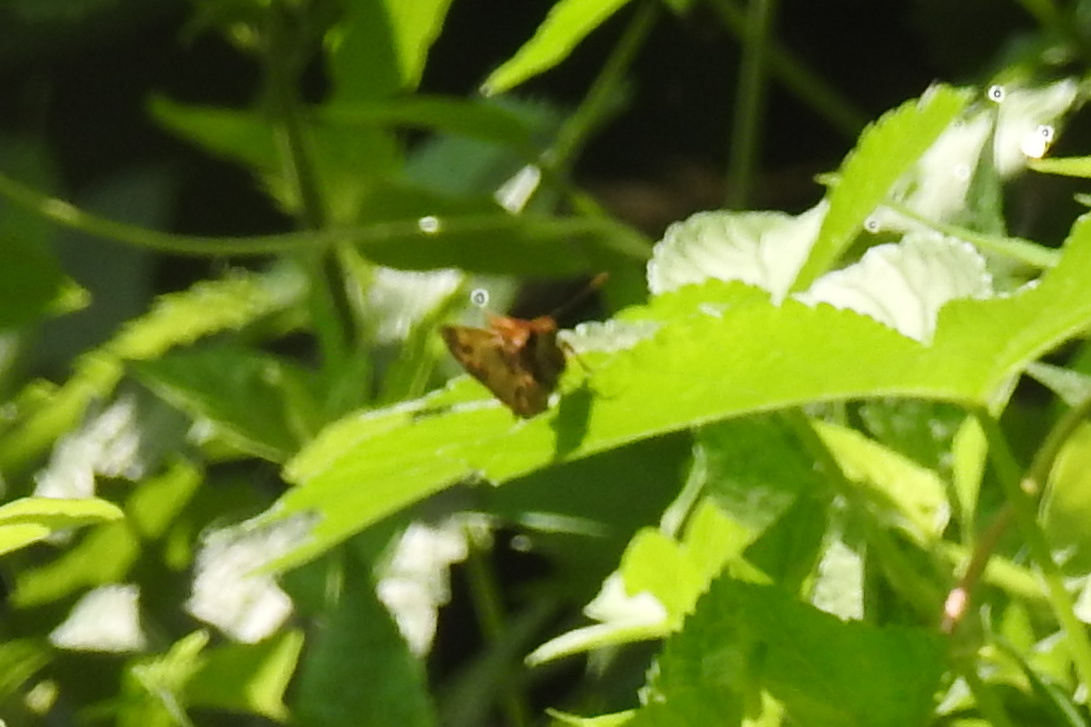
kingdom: Animalia
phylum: Arthropoda
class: Insecta
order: Lepidoptera
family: Hesperiidae
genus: Lon
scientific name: Lon zabulon
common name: Zabulon skipper
